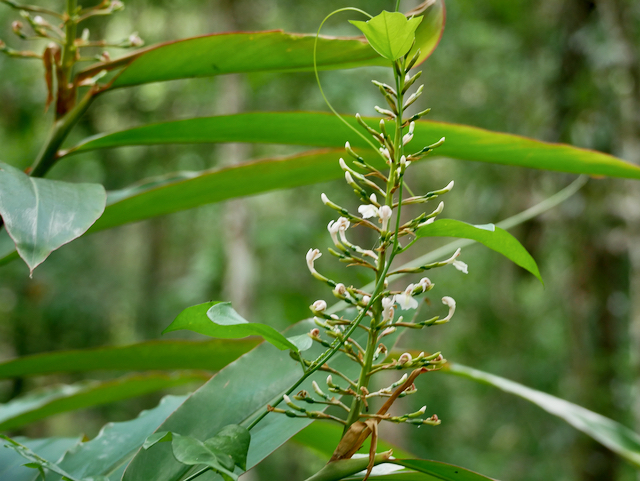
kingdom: Plantae
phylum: Tracheophyta
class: Liliopsida
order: Zingiberales
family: Zingiberaceae
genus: Alpinia
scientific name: Alpinia caerulea
